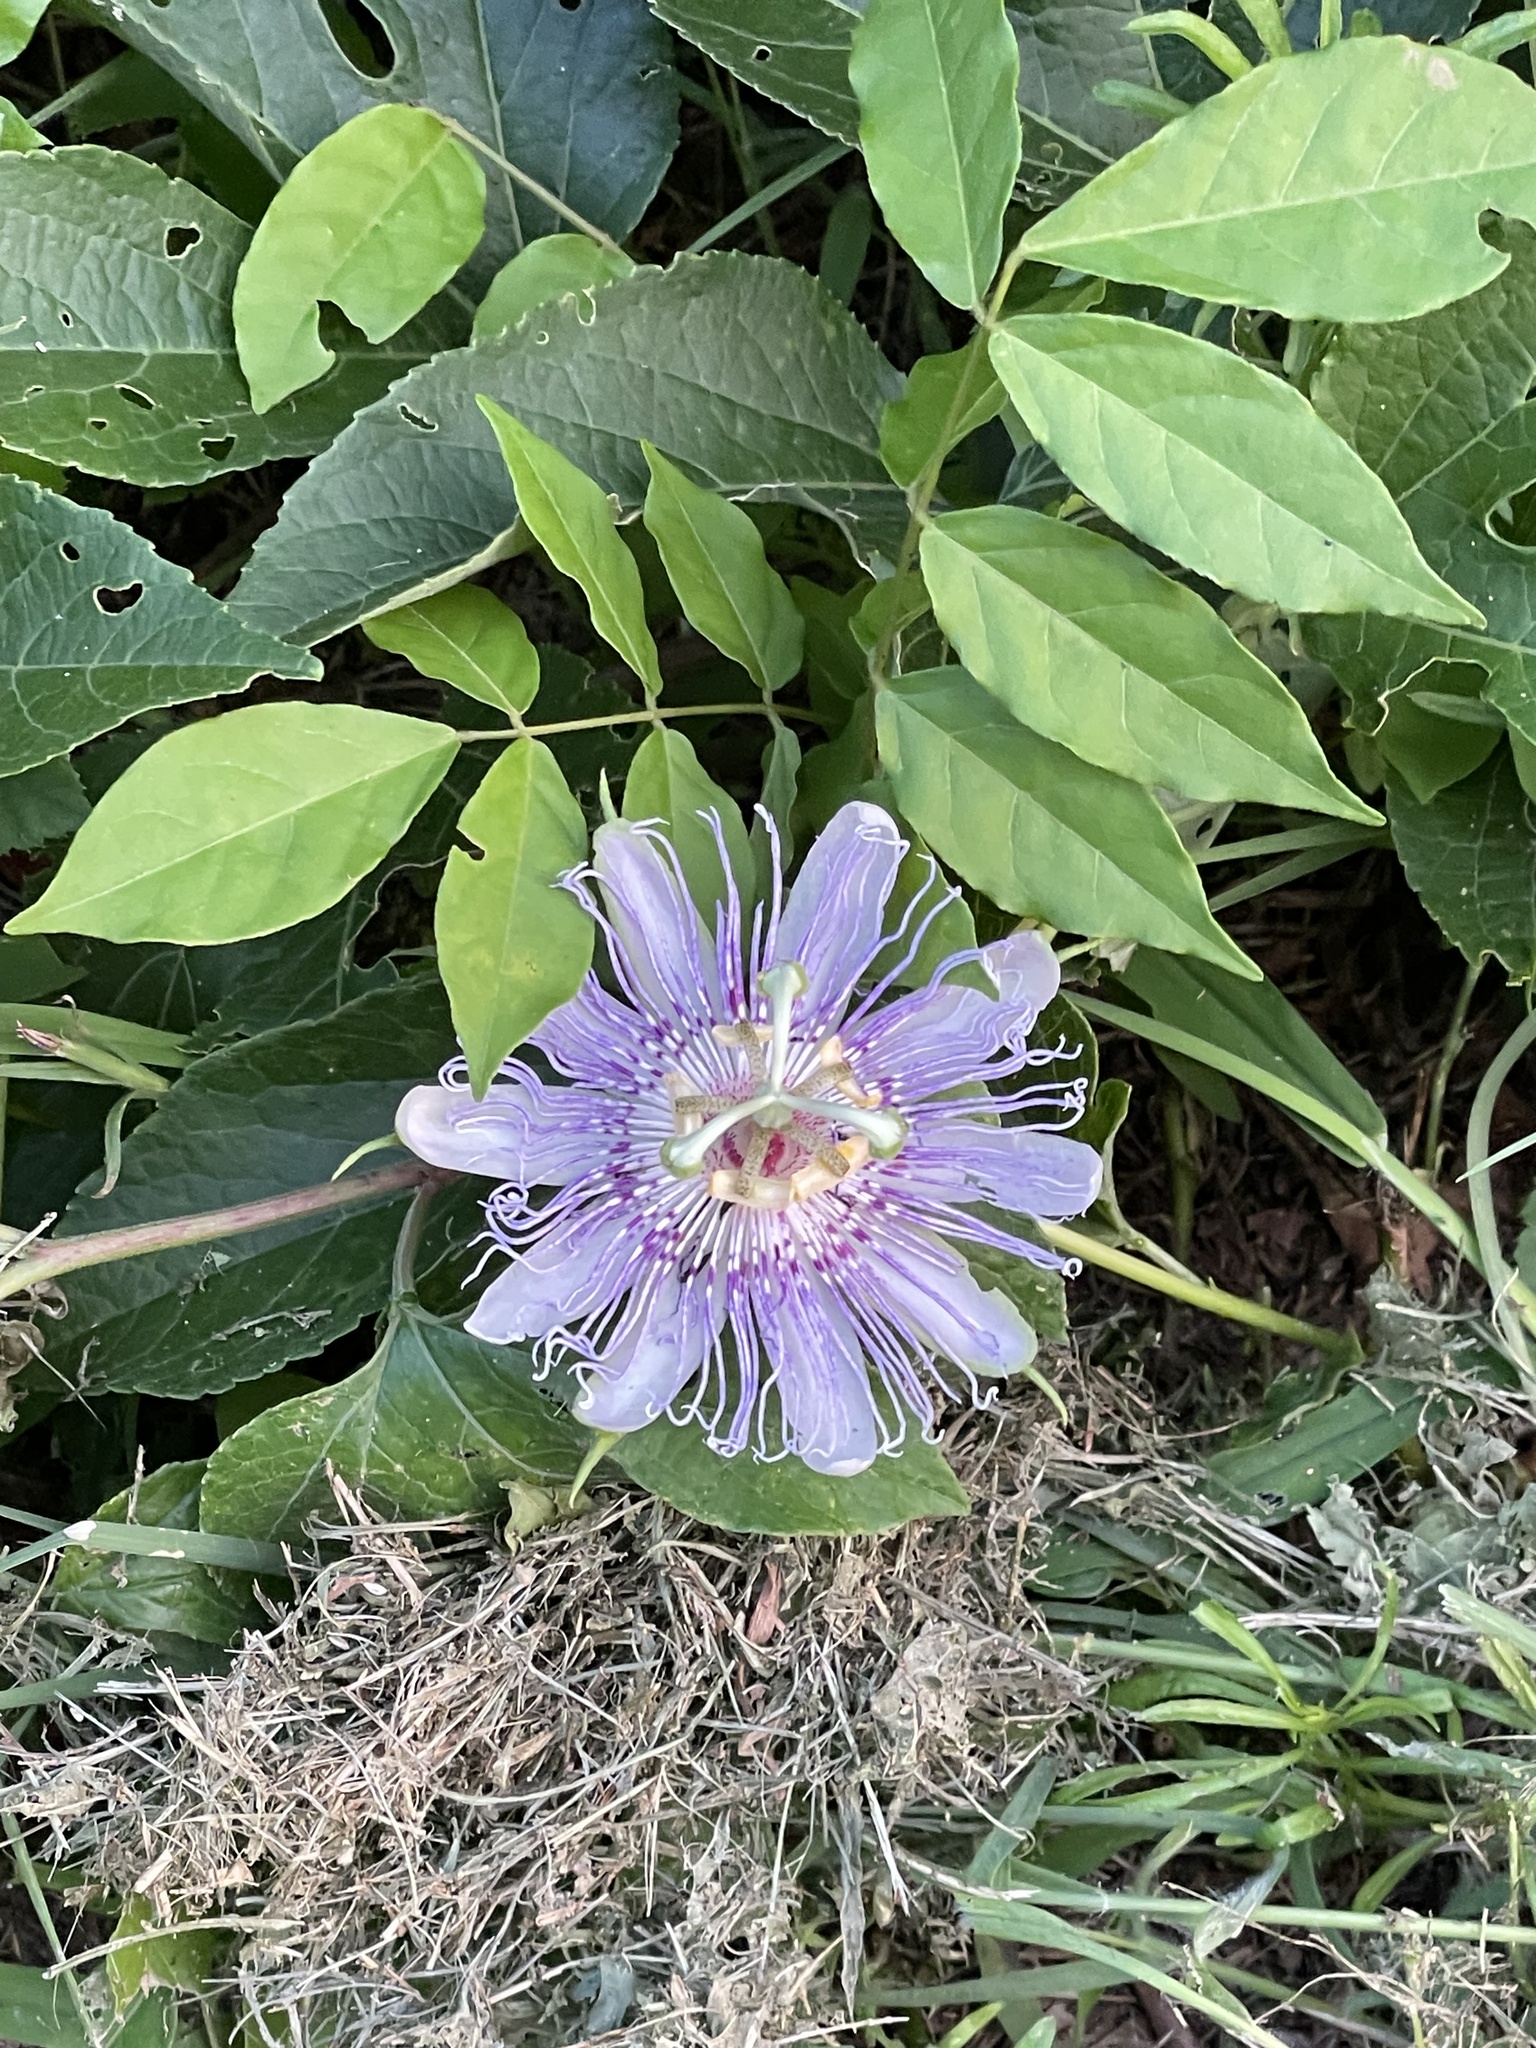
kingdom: Plantae
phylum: Tracheophyta
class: Magnoliopsida
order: Malpighiales
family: Passifloraceae
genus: Passiflora
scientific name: Passiflora incarnata
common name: Apricot-vine
